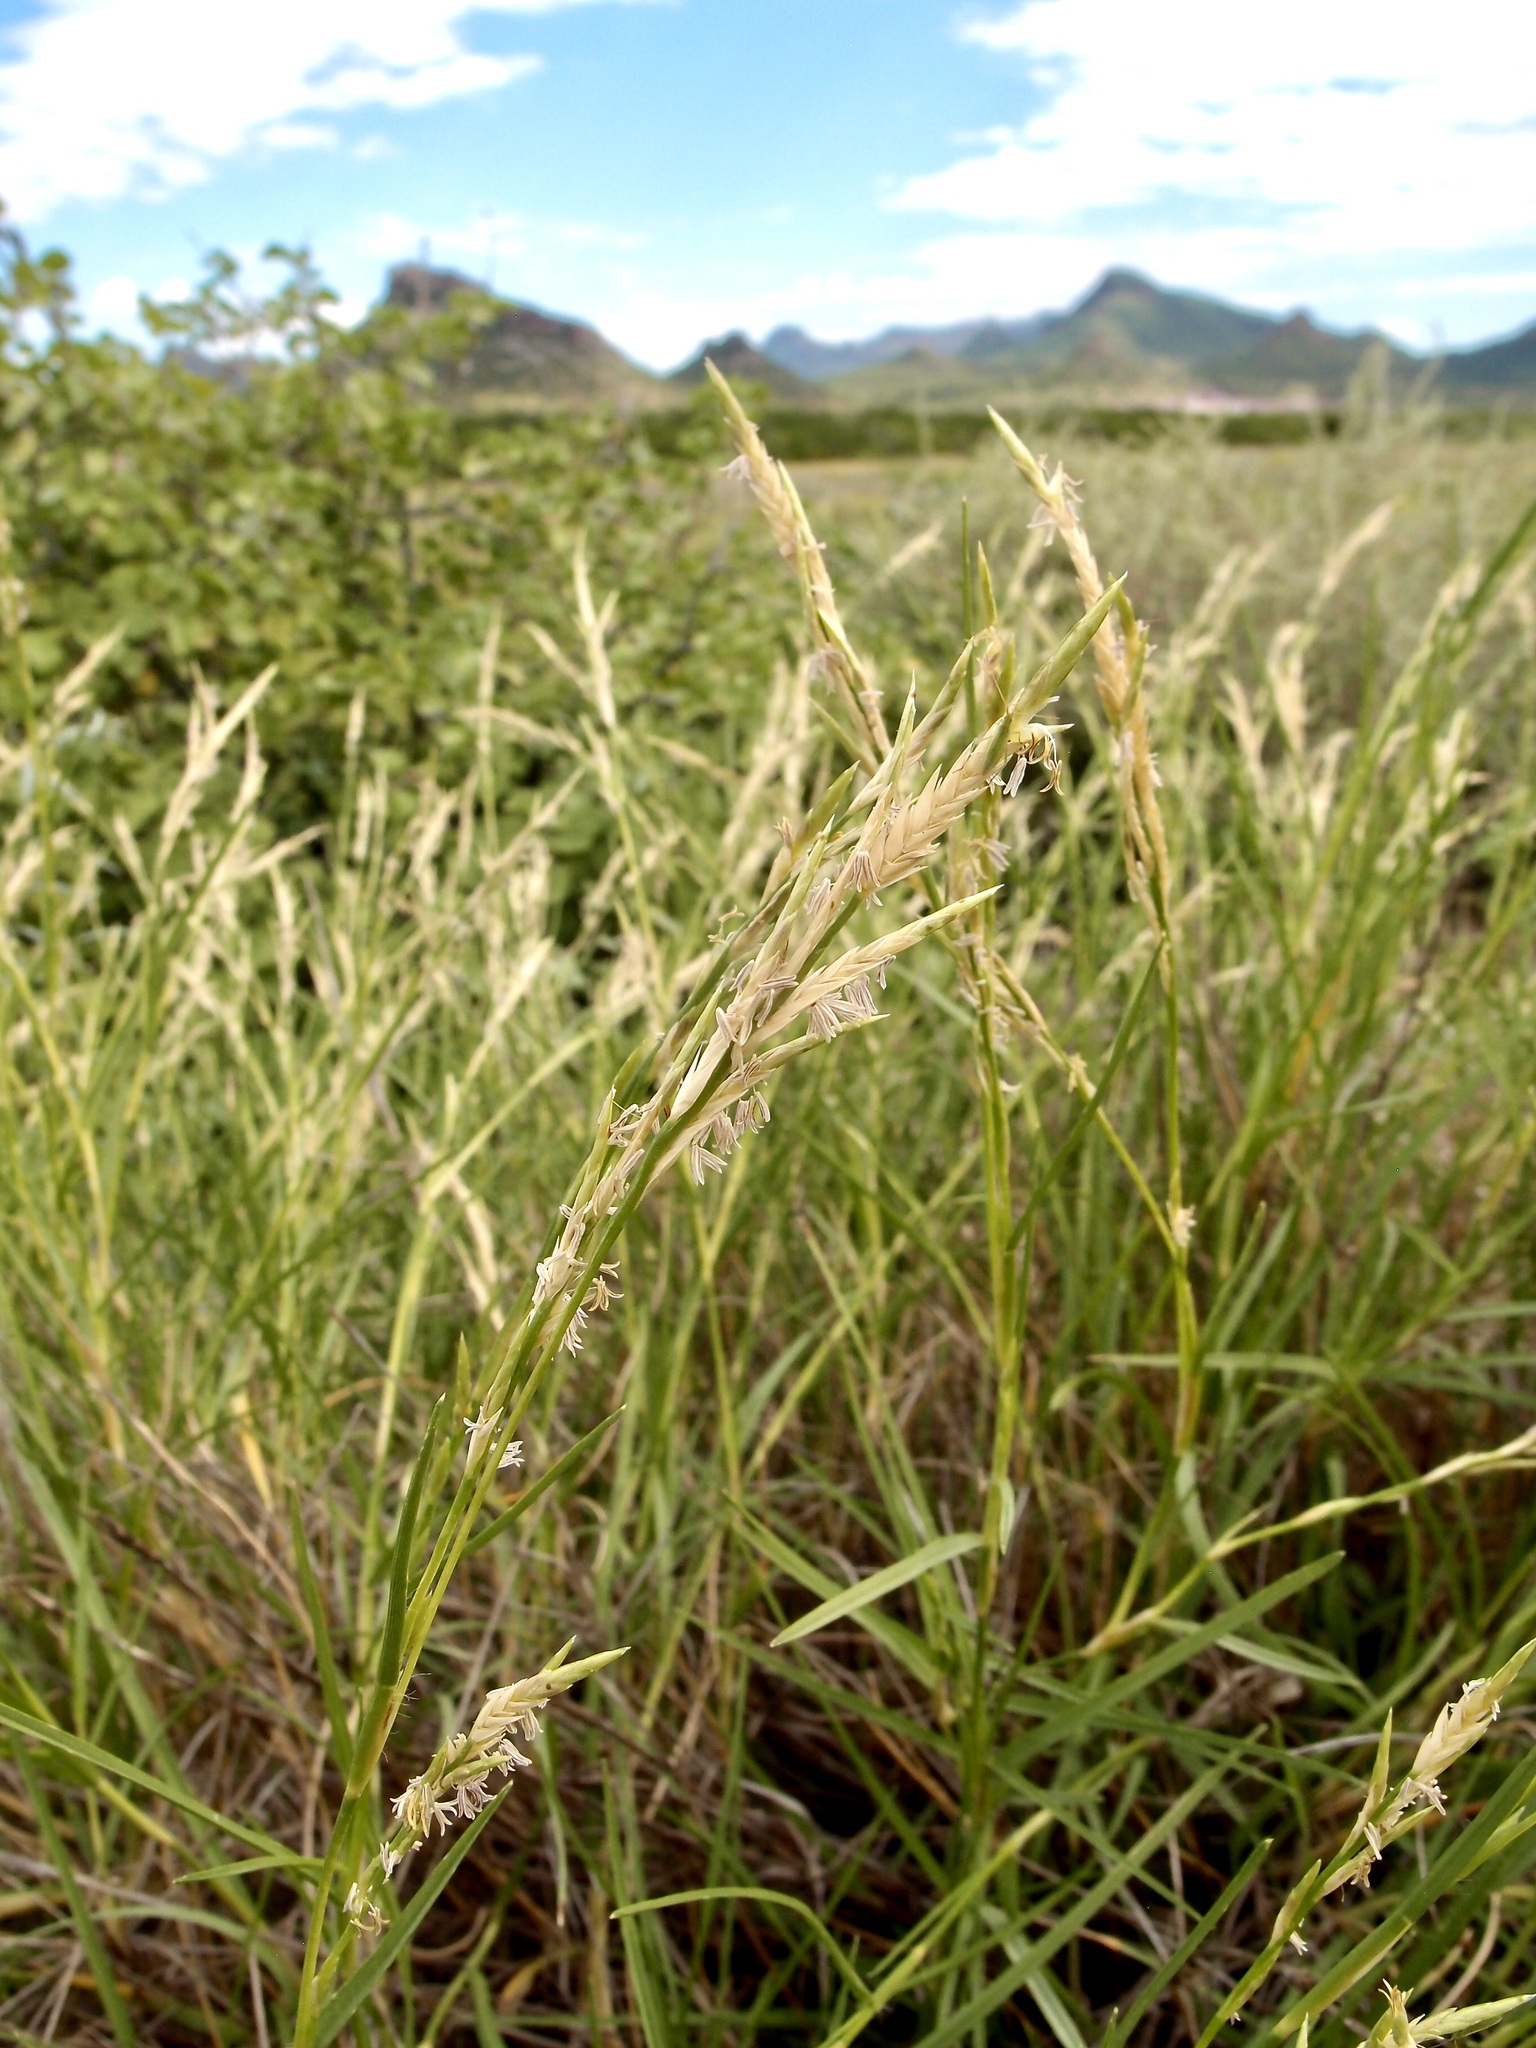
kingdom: Plantae
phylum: Tracheophyta
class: Liliopsida
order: Poales
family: Poaceae
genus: Jouvea
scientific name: Jouvea pilosa
